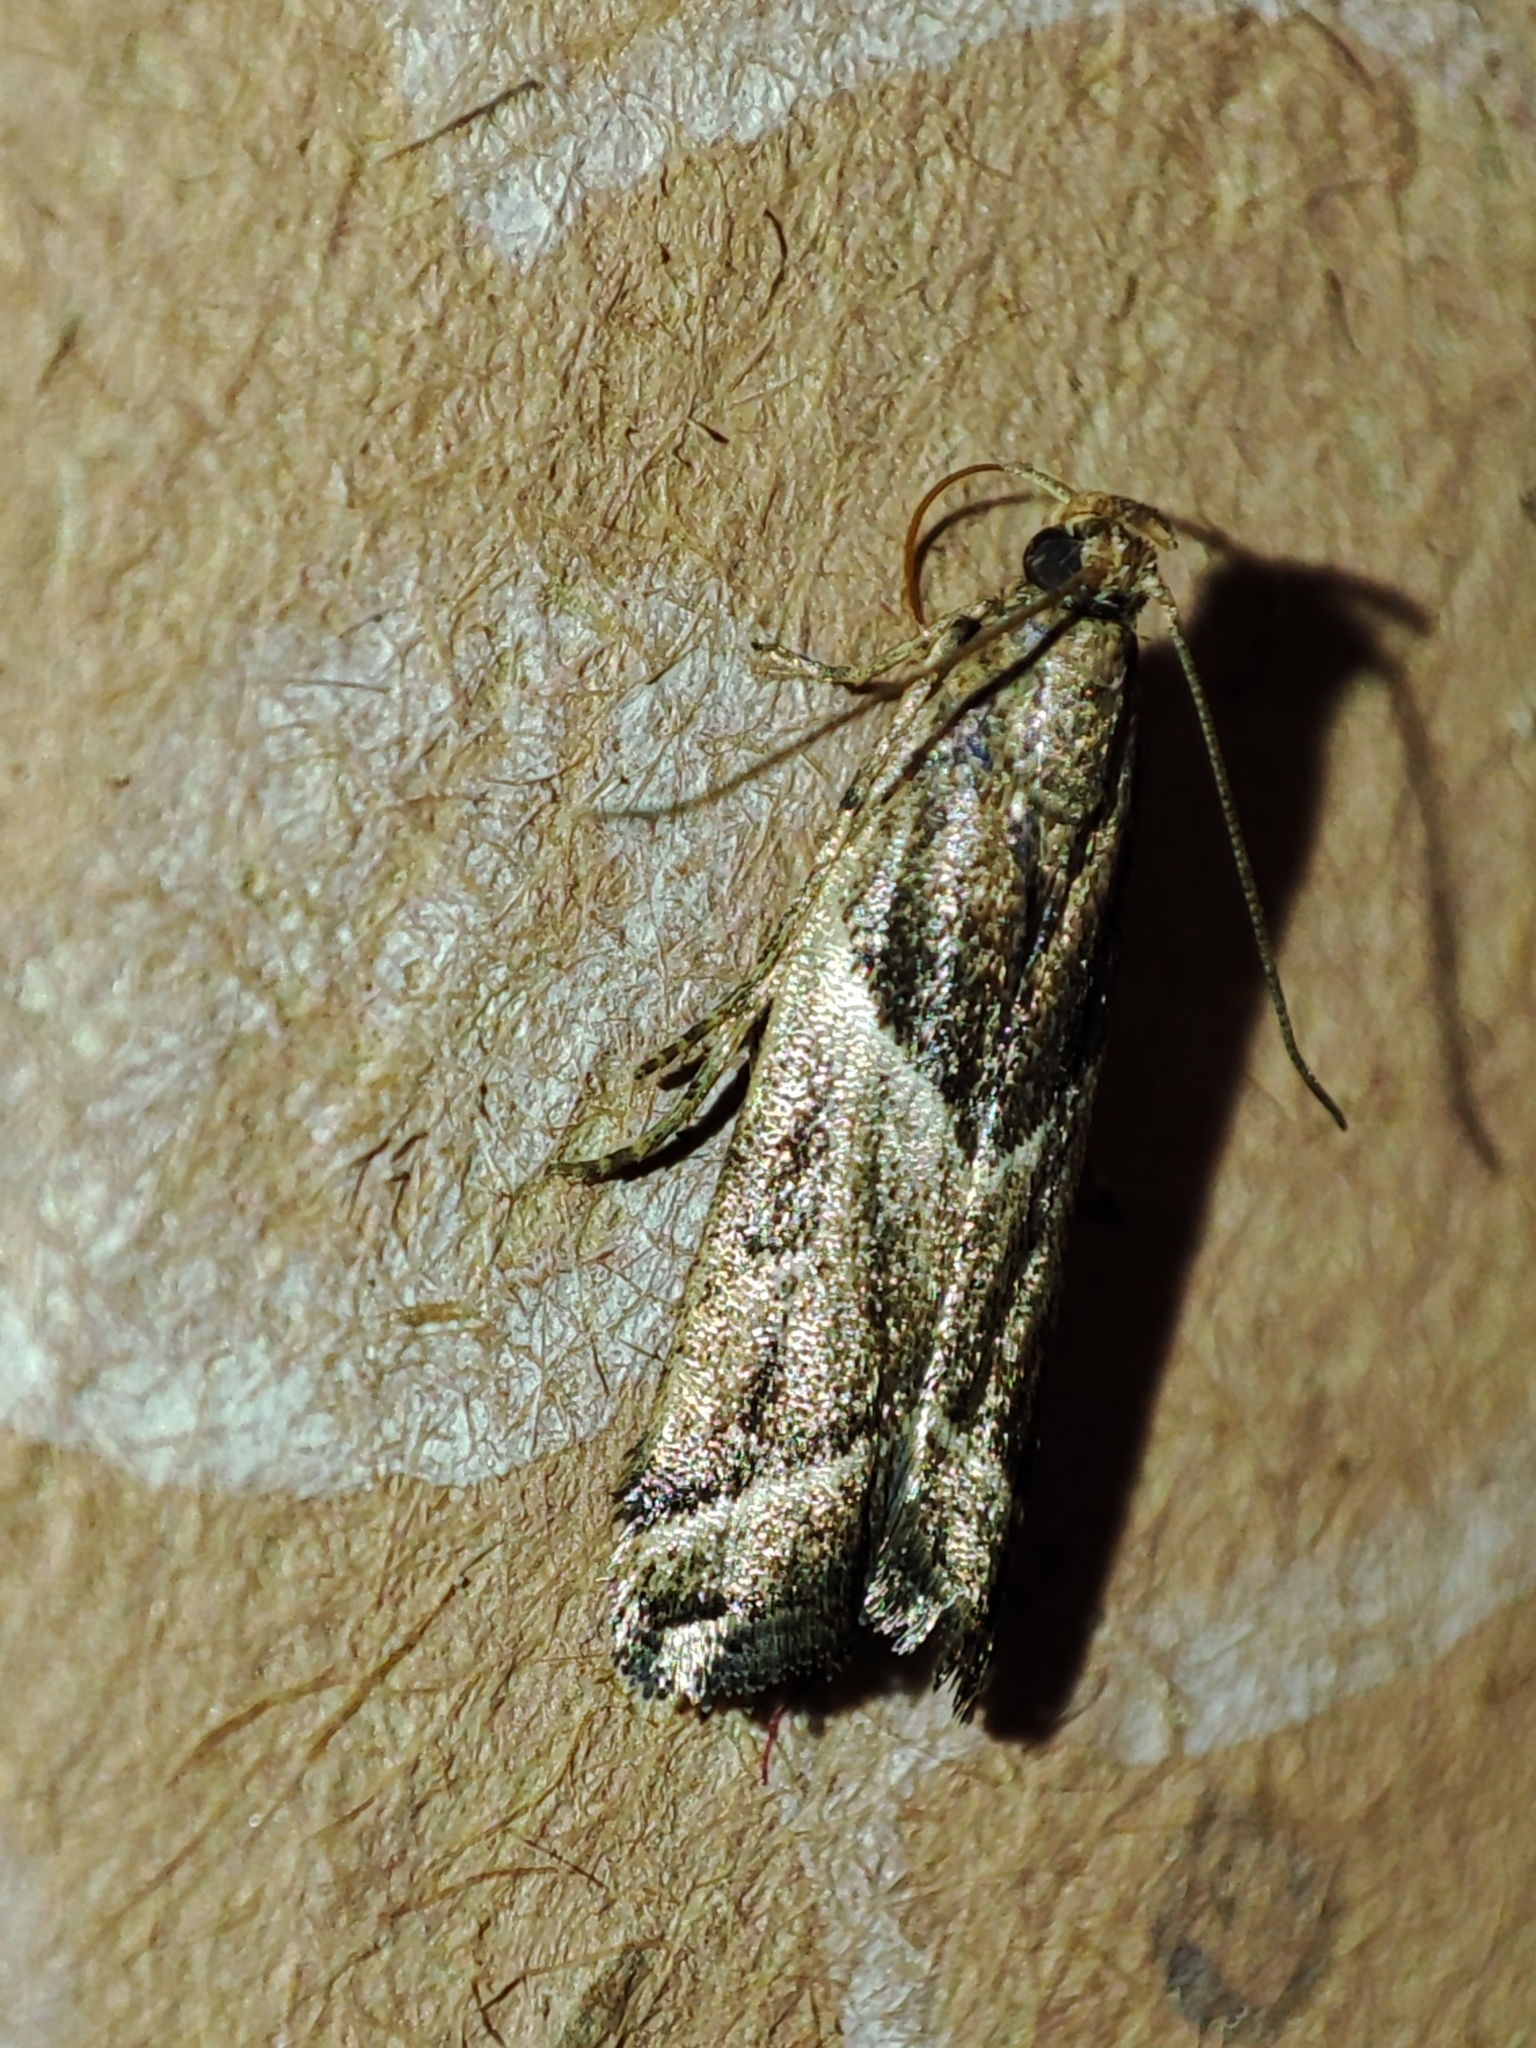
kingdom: Animalia
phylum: Arthropoda
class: Insecta
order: Lepidoptera
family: Pyralidae
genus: Nyctegretis
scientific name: Nyctegretis lineana
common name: Agate knot-horn
